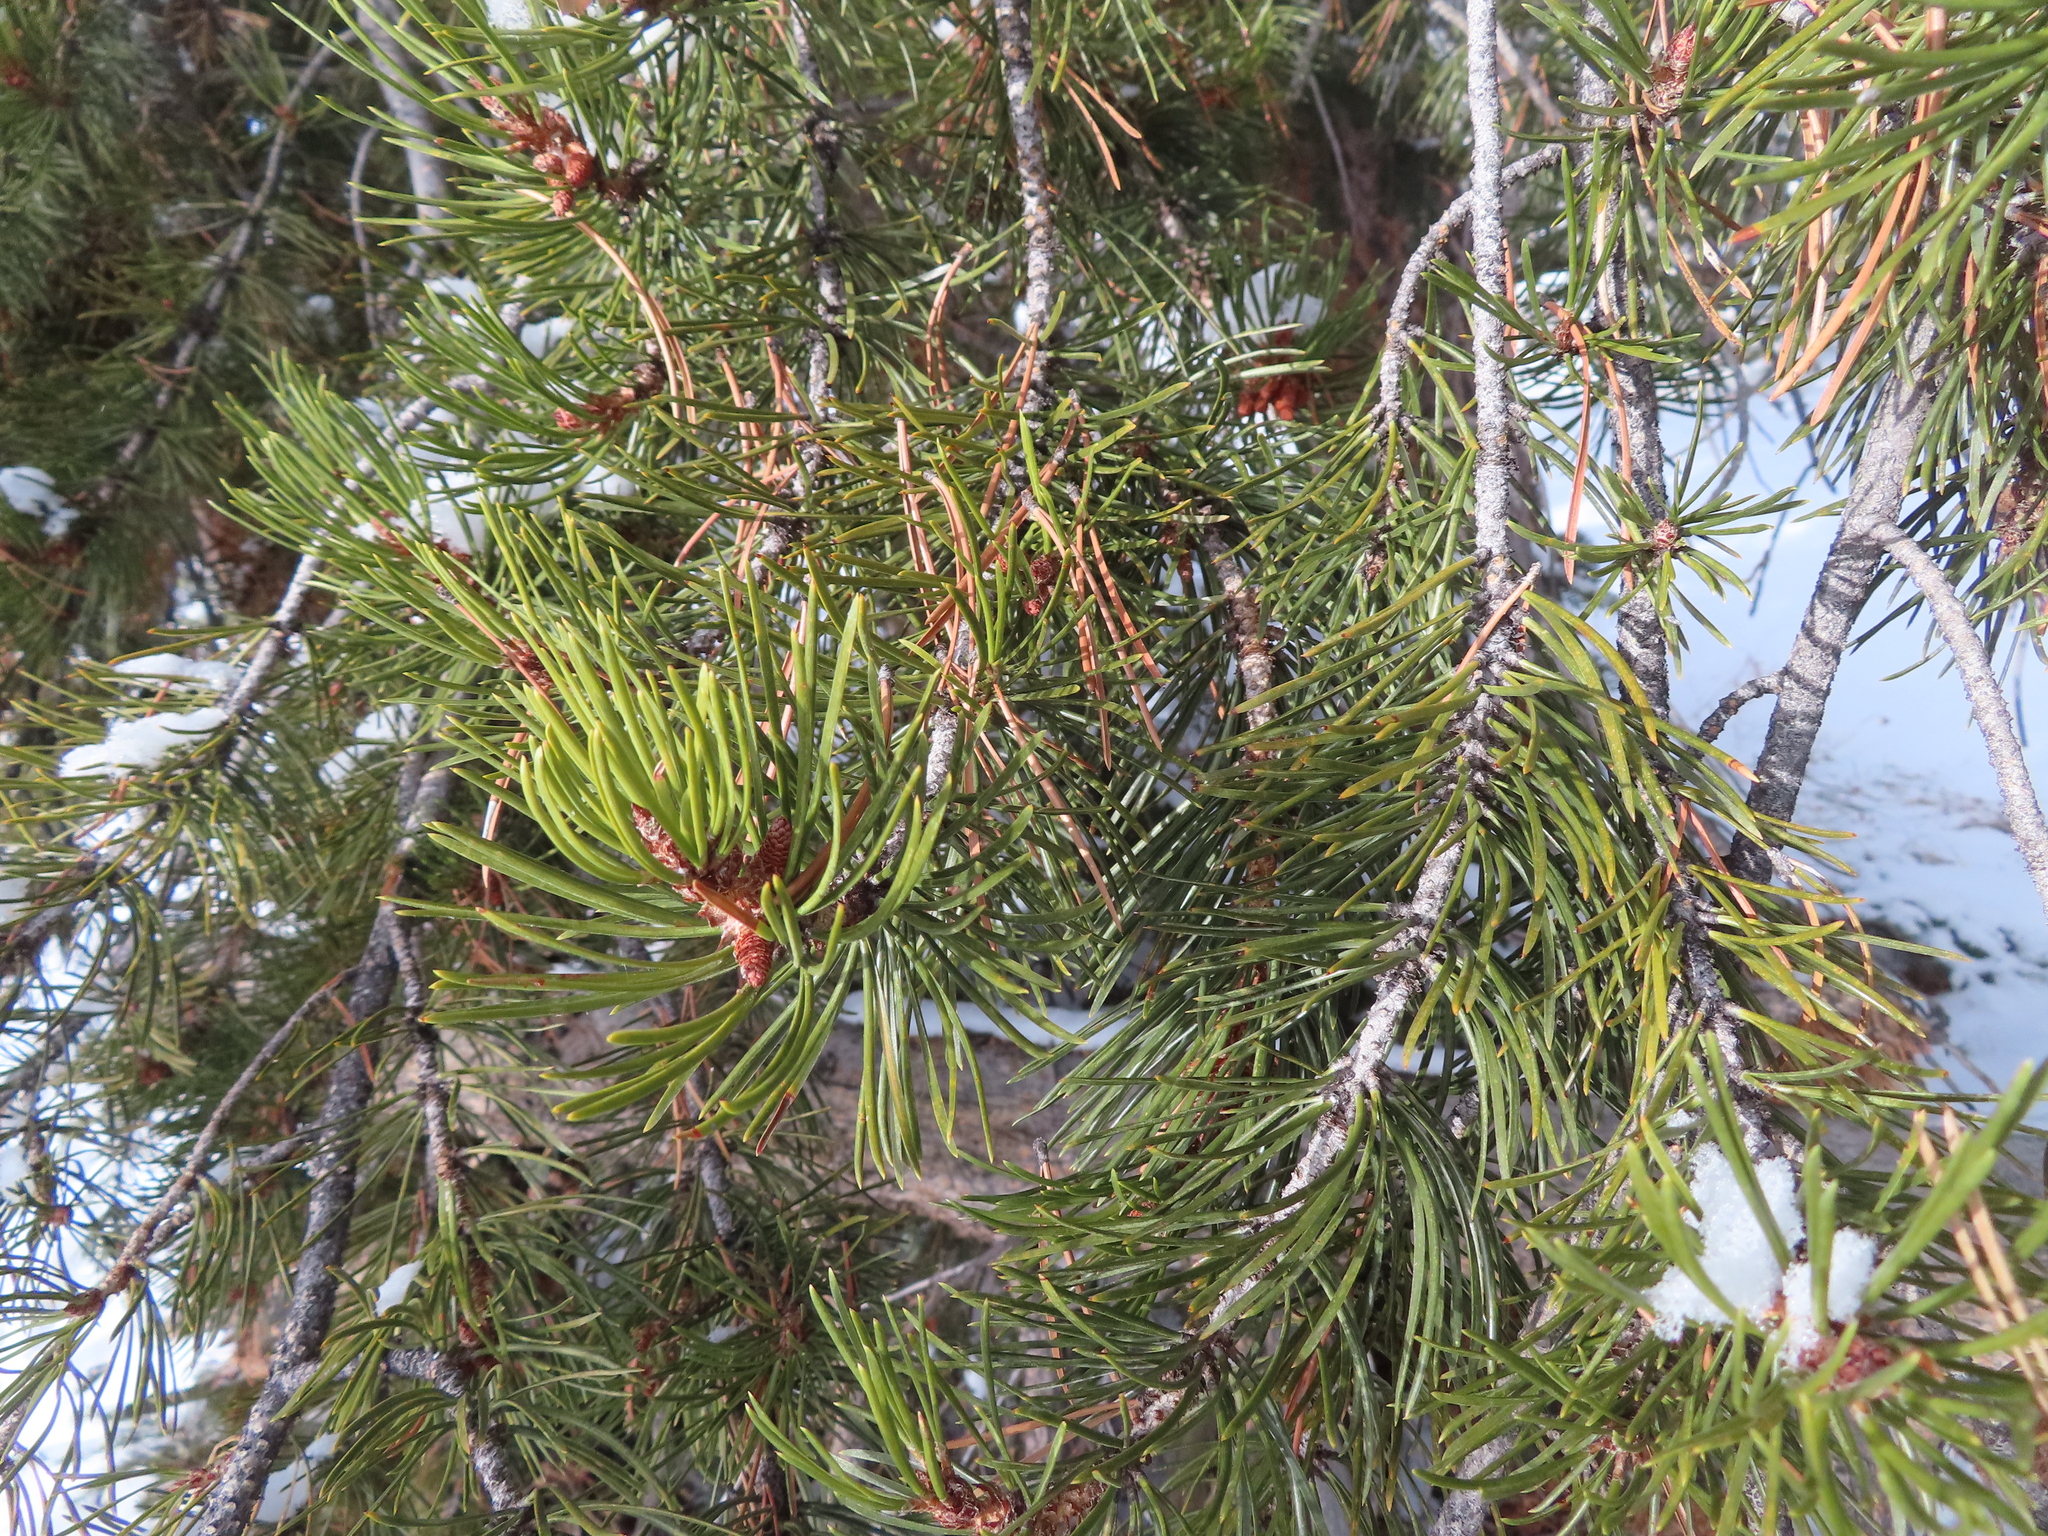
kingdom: Plantae
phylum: Tracheophyta
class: Pinopsida
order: Pinales
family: Pinaceae
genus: Pinus
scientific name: Pinus contorta
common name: Lodgepole pine
